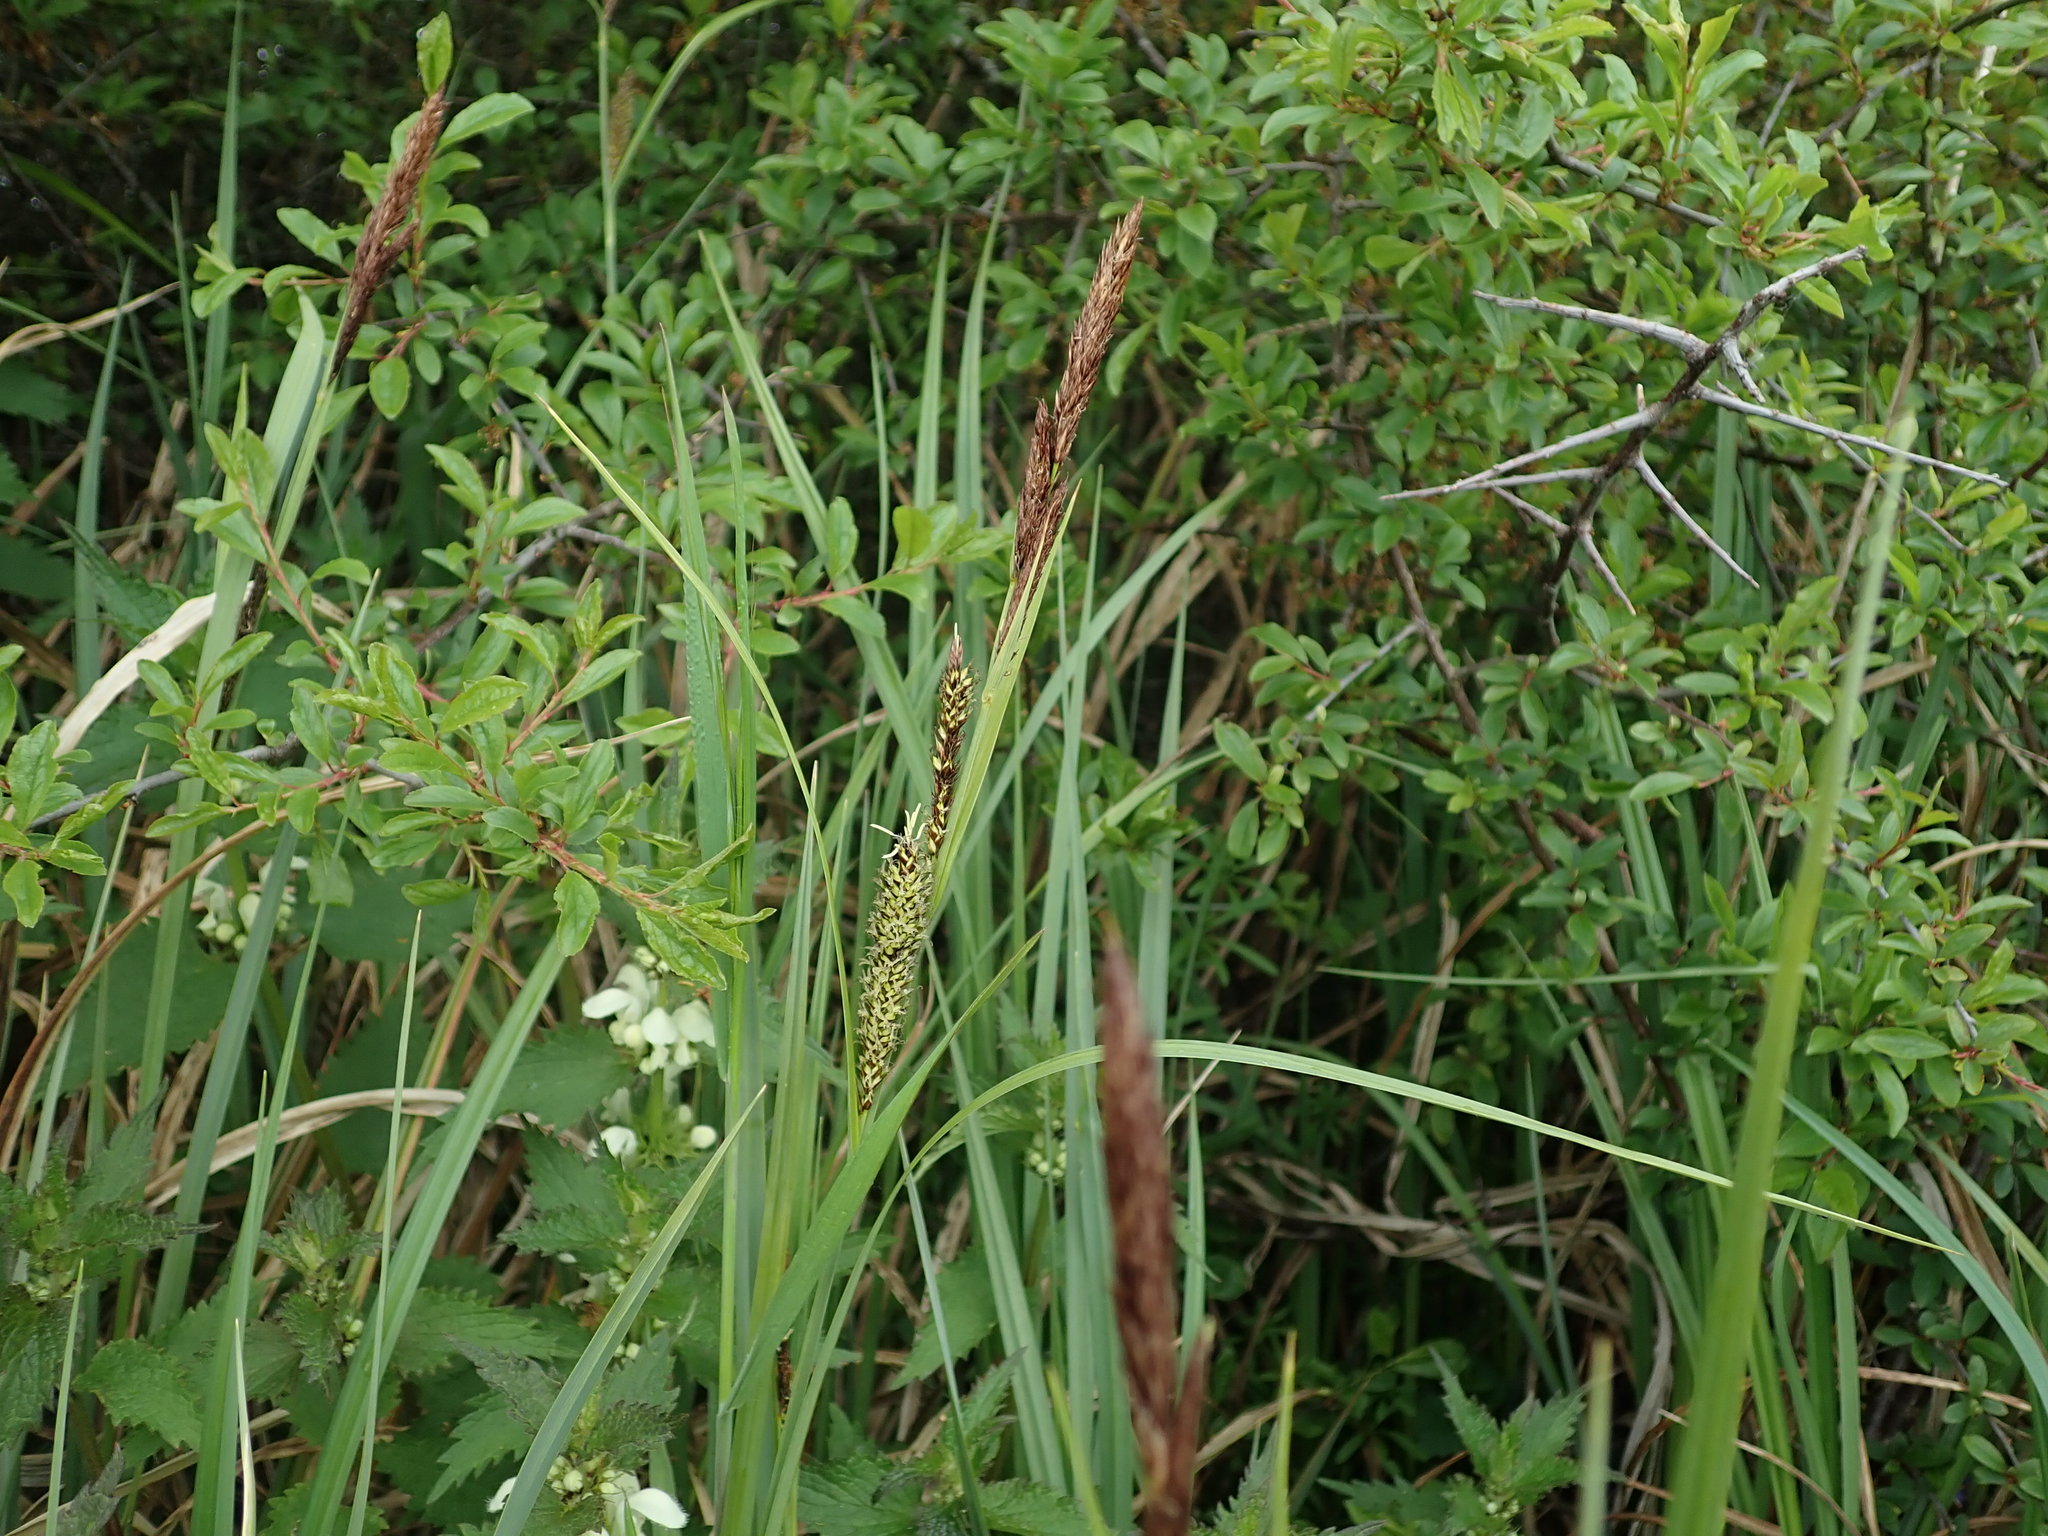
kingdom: Plantae
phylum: Tracheophyta
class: Liliopsida
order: Poales
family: Cyperaceae
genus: Carex
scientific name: Carex riparia
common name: Greater pond-sedge
